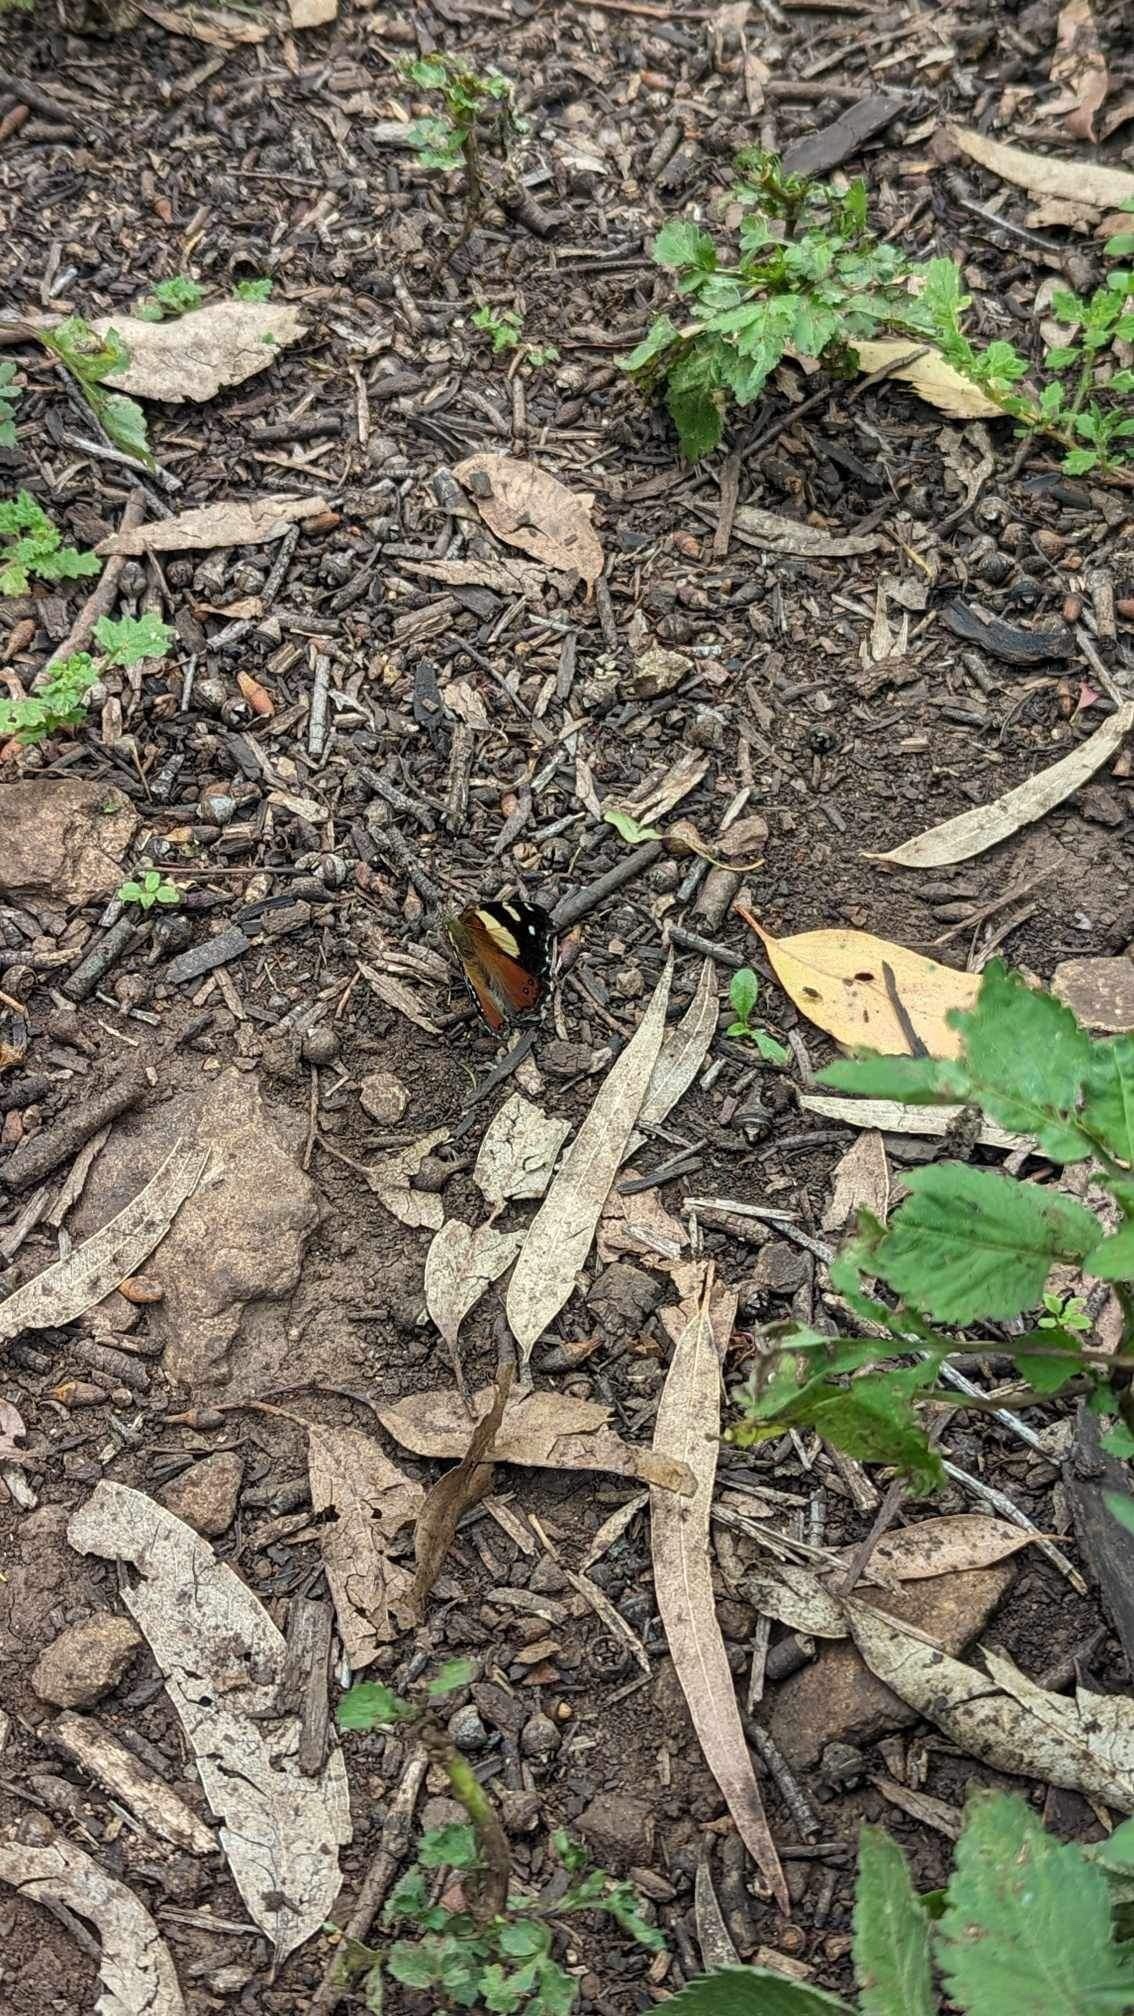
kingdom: Animalia
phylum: Arthropoda
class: Insecta
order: Lepidoptera
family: Nymphalidae
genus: Vanessa
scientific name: Vanessa itea
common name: Yellow admiral
